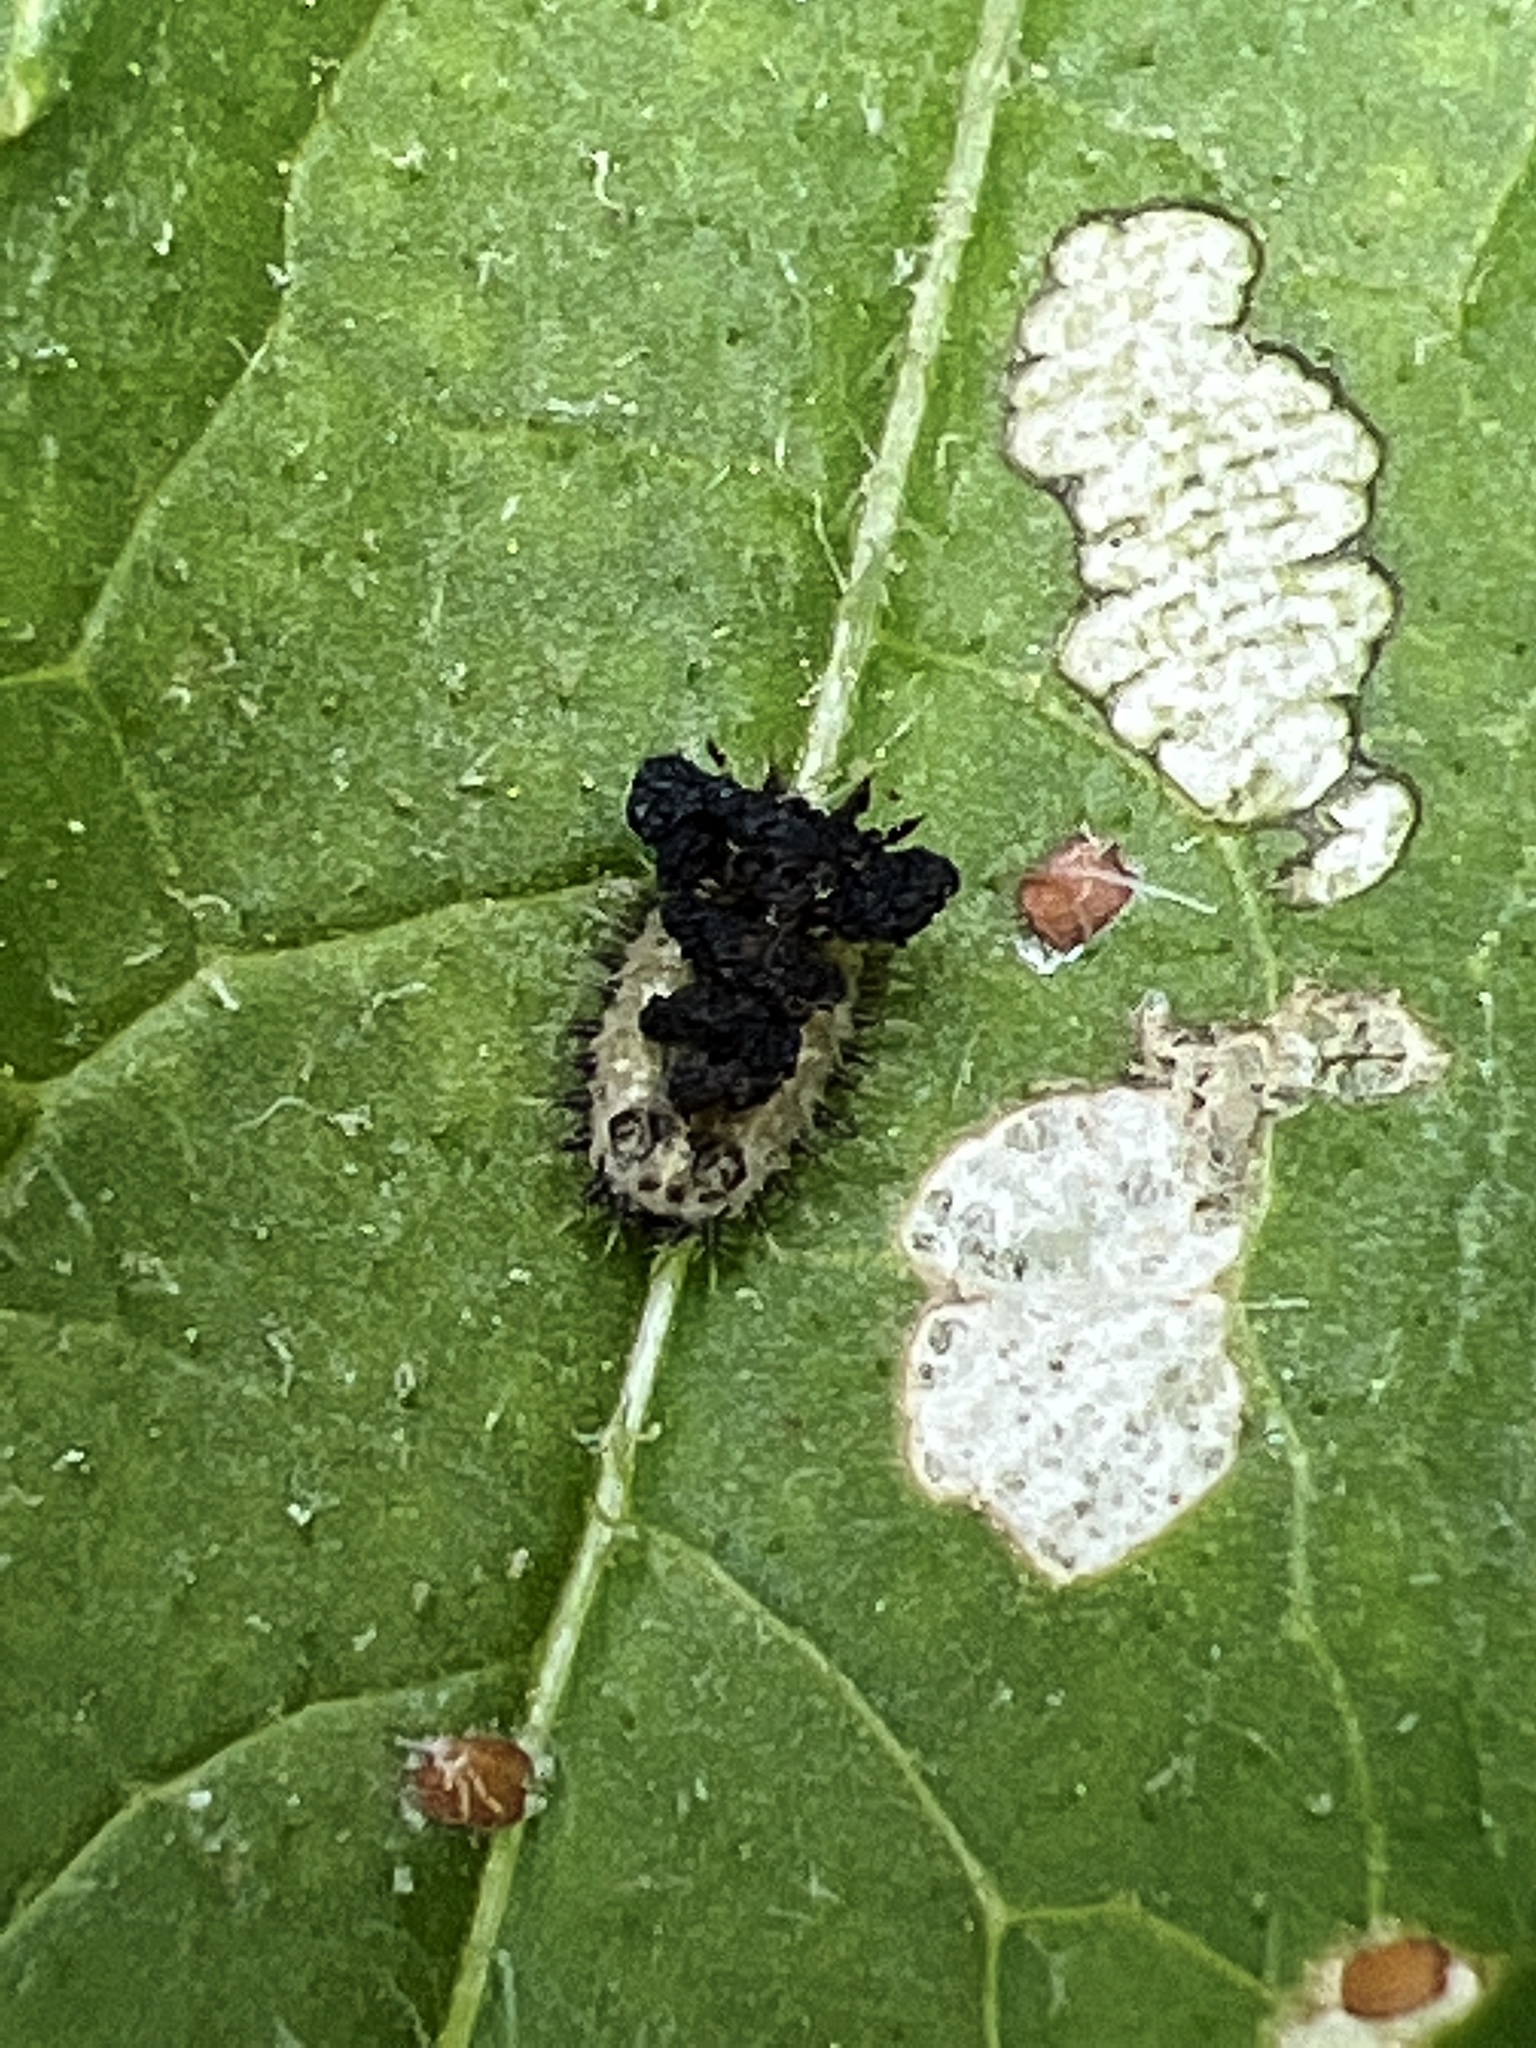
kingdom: Animalia
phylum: Arthropoda
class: Insecta
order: Coleoptera
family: Chrysomelidae
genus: Cassida
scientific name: Cassida rubiginosa
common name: Thistle tortoise beetle
